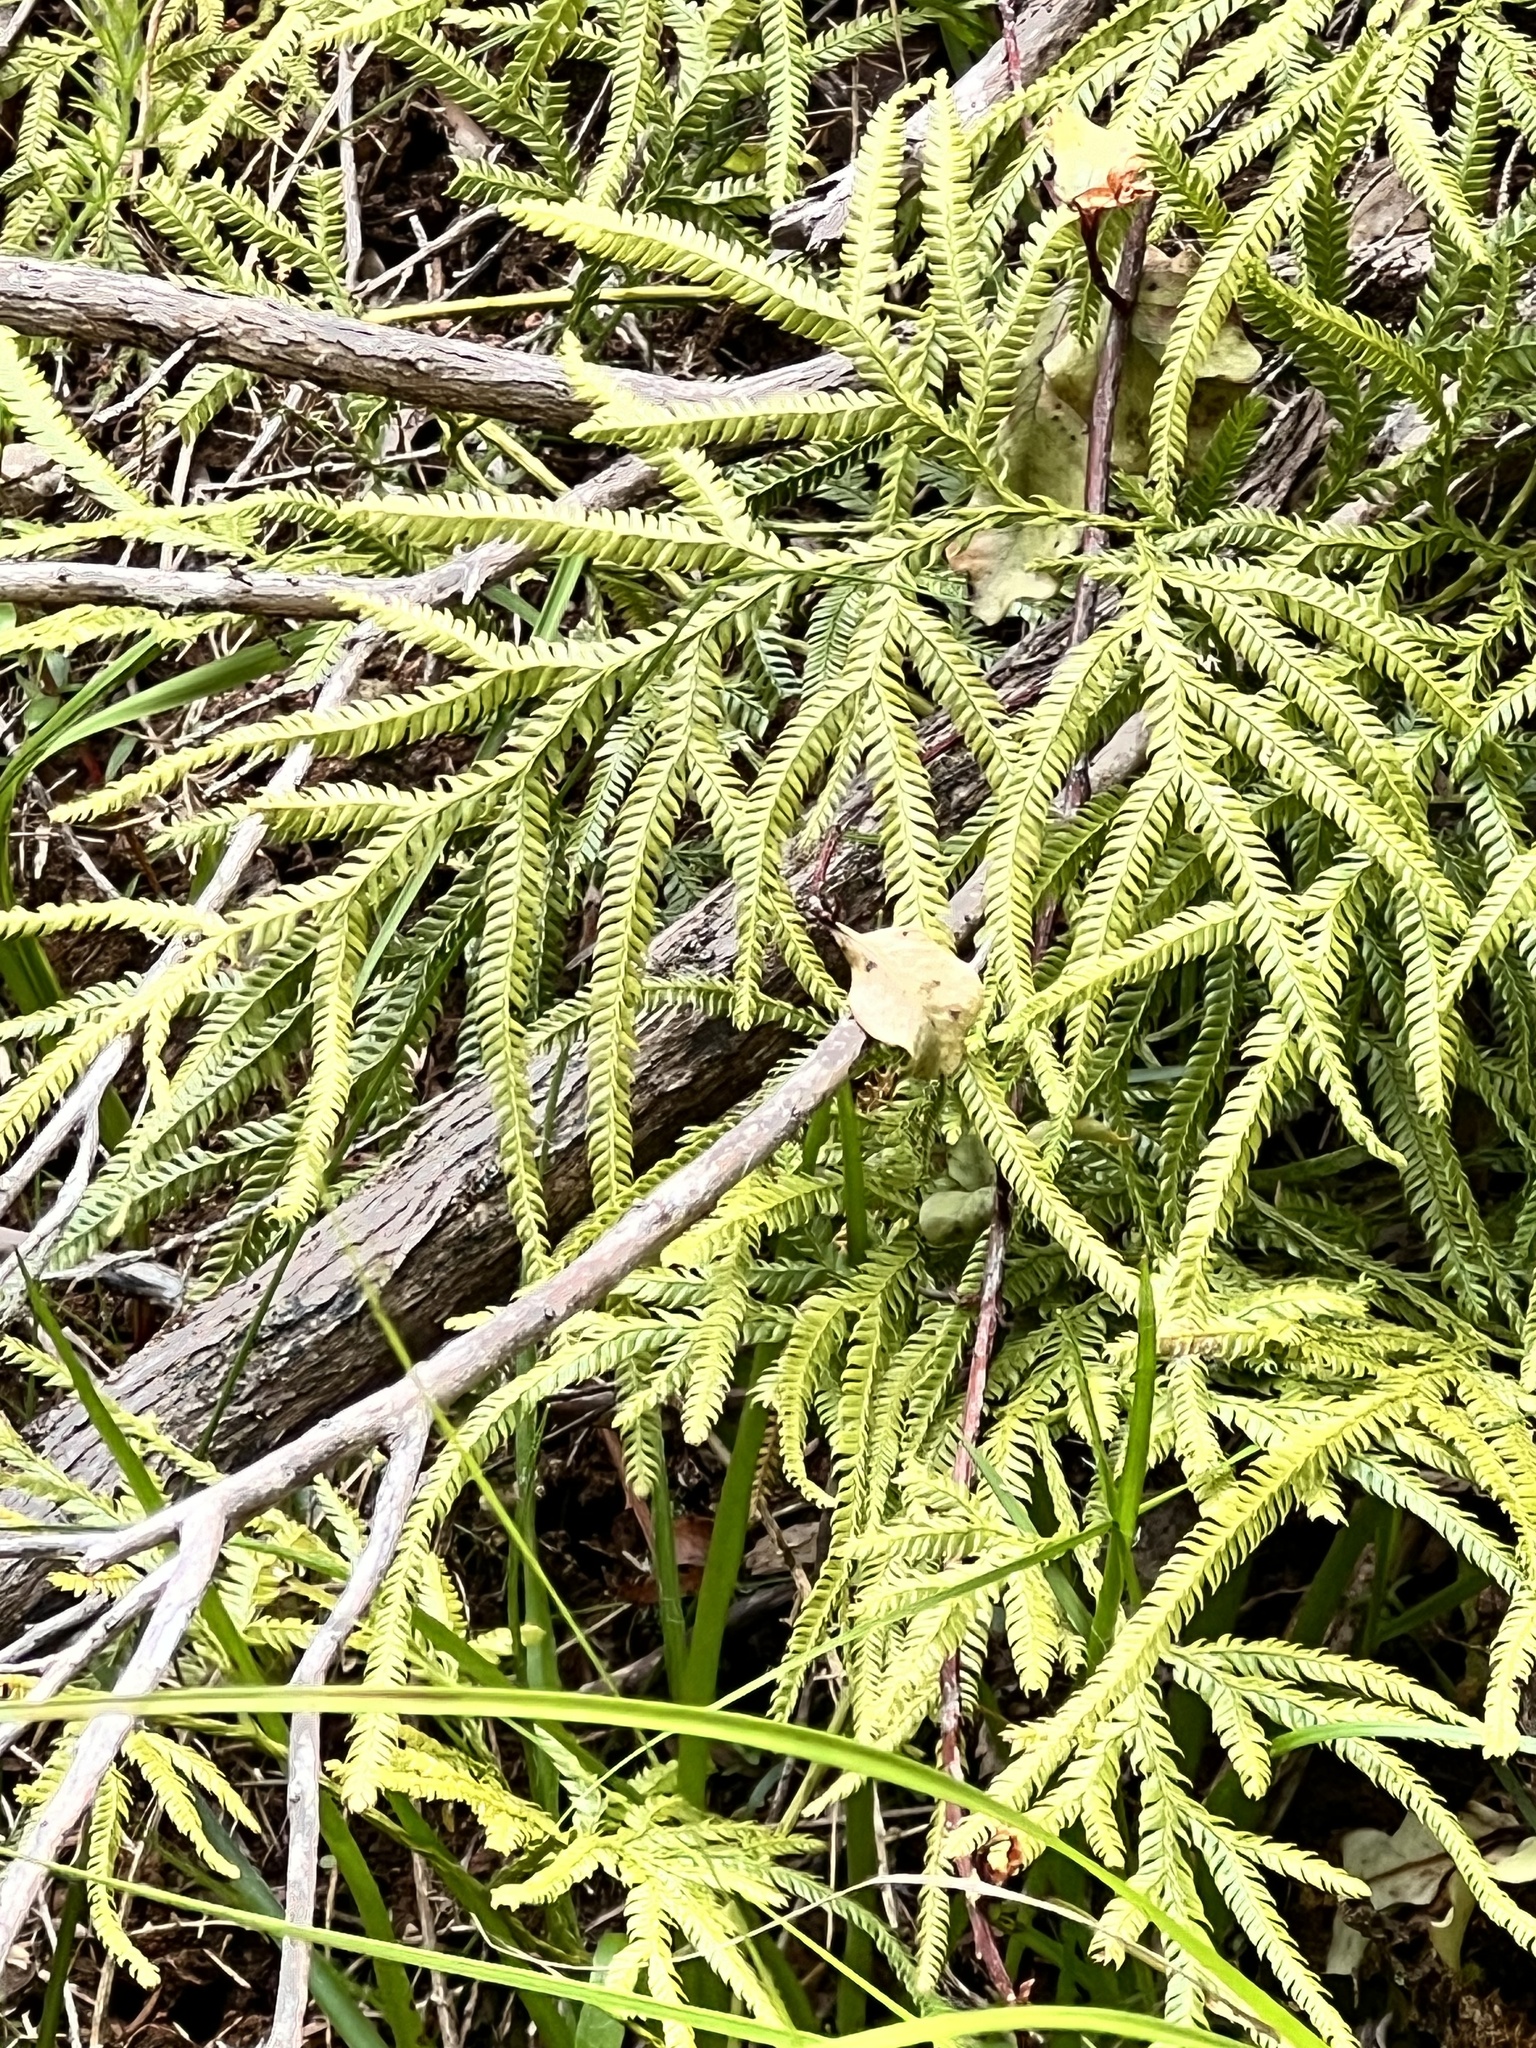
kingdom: Plantae
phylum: Tracheophyta
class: Lycopodiopsida
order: Lycopodiales
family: Lycopodiaceae
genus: Lycopodium
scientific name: Lycopodium volubile
